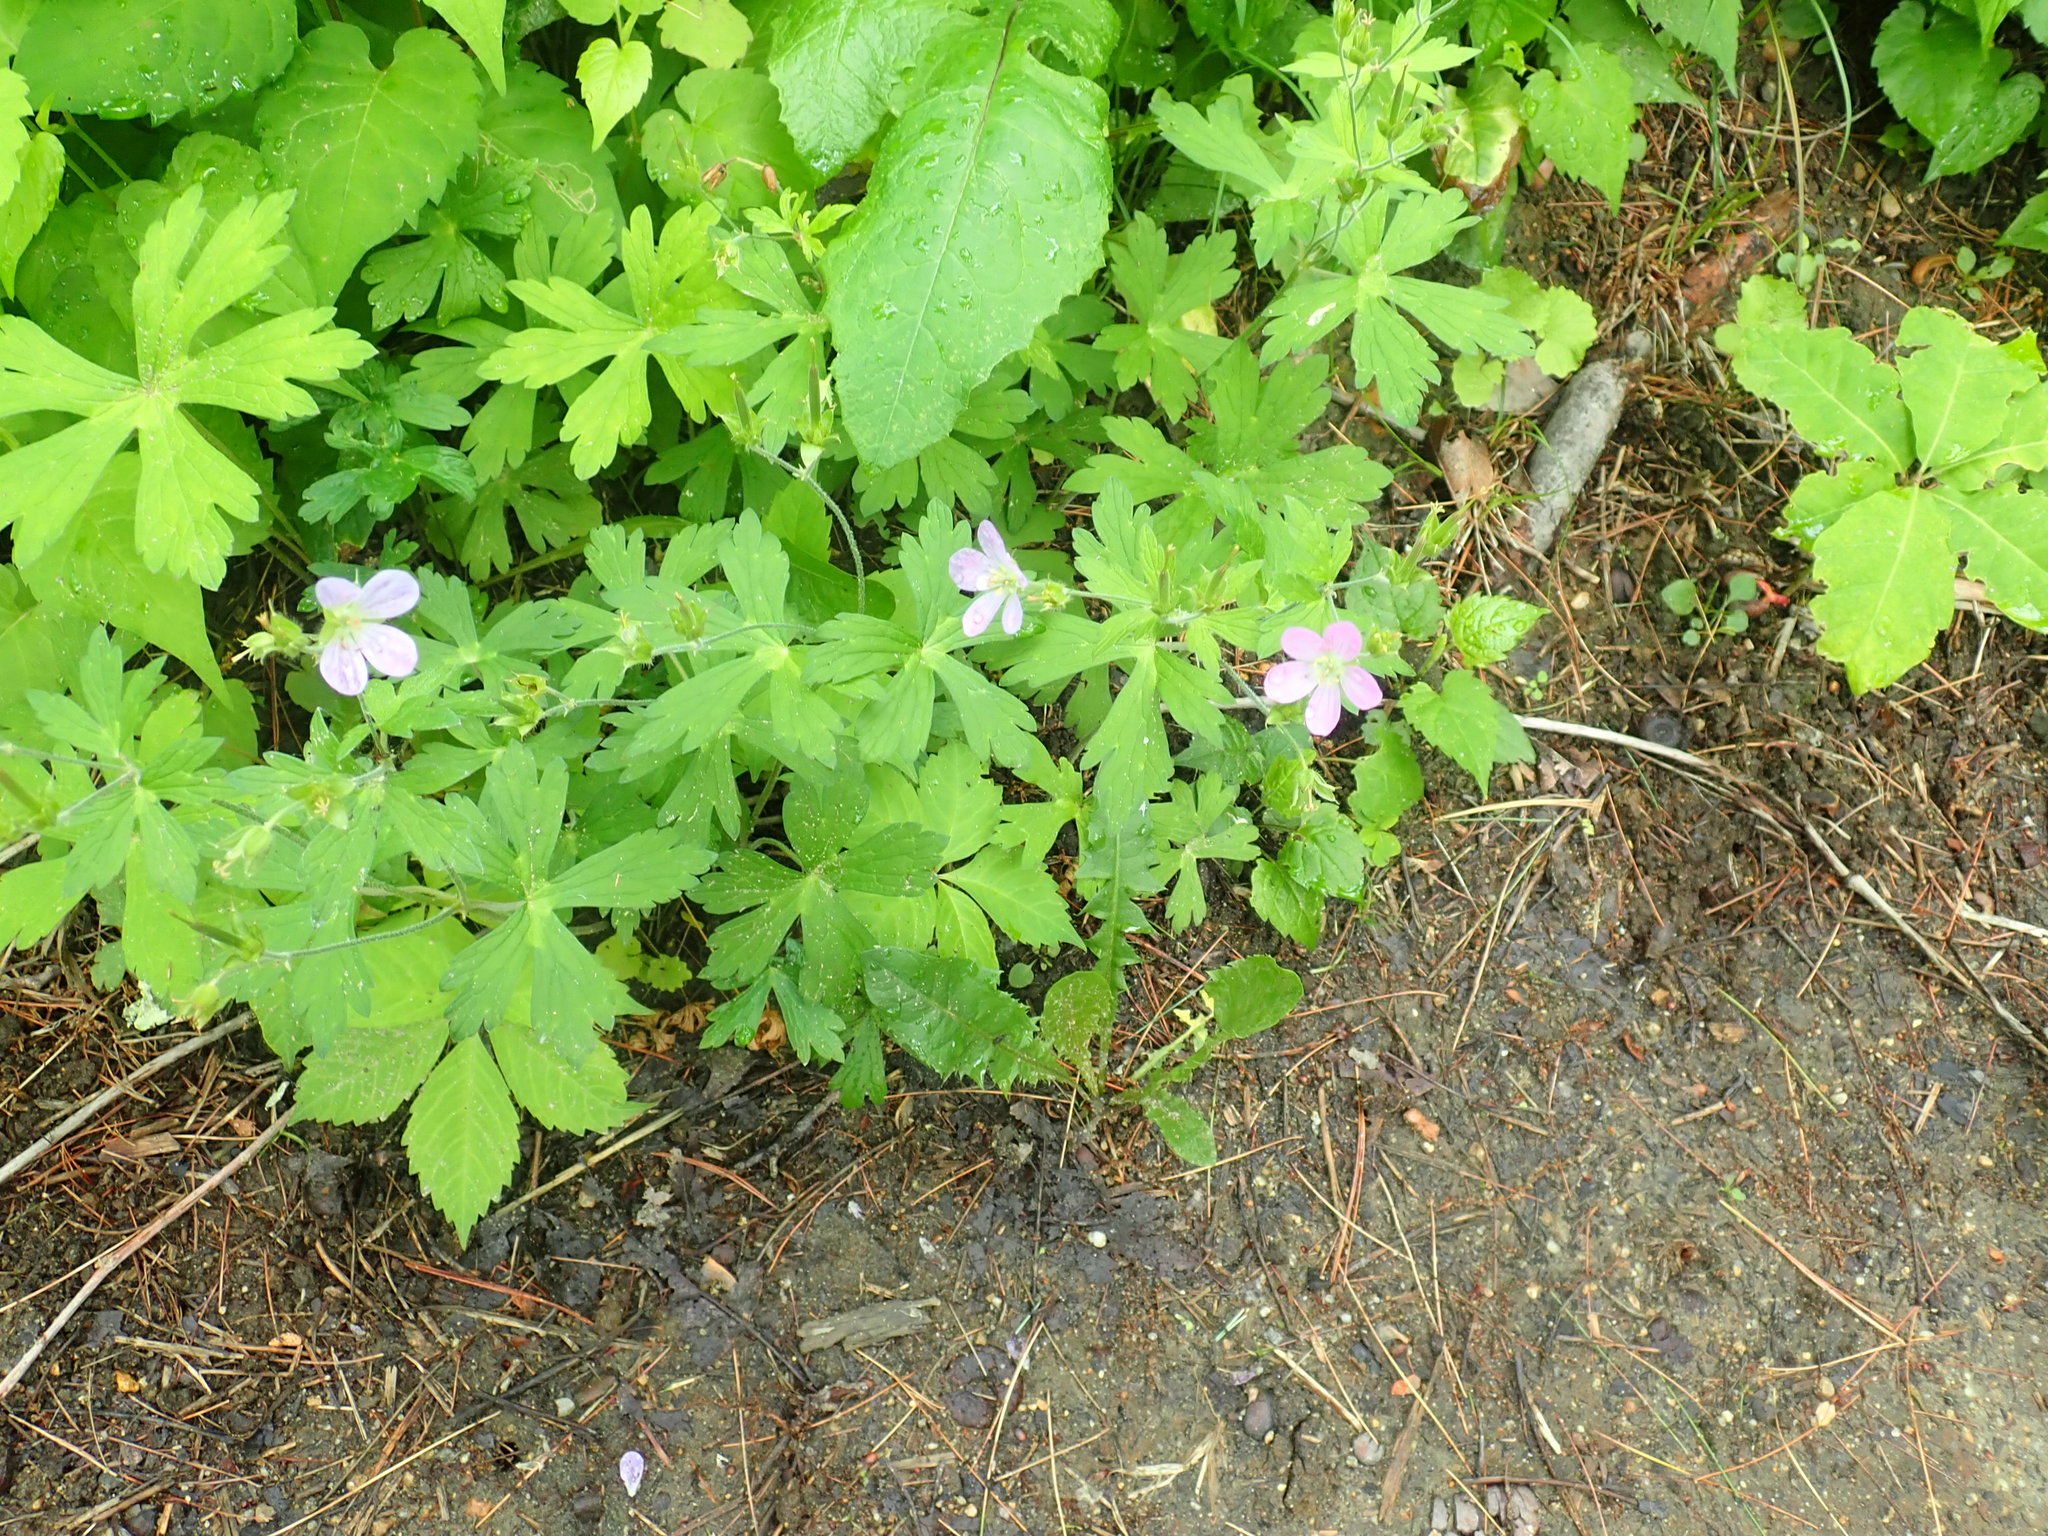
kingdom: Plantae
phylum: Tracheophyta
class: Magnoliopsida
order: Geraniales
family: Geraniaceae
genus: Geranium
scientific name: Geranium maculatum
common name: Spotted geranium
